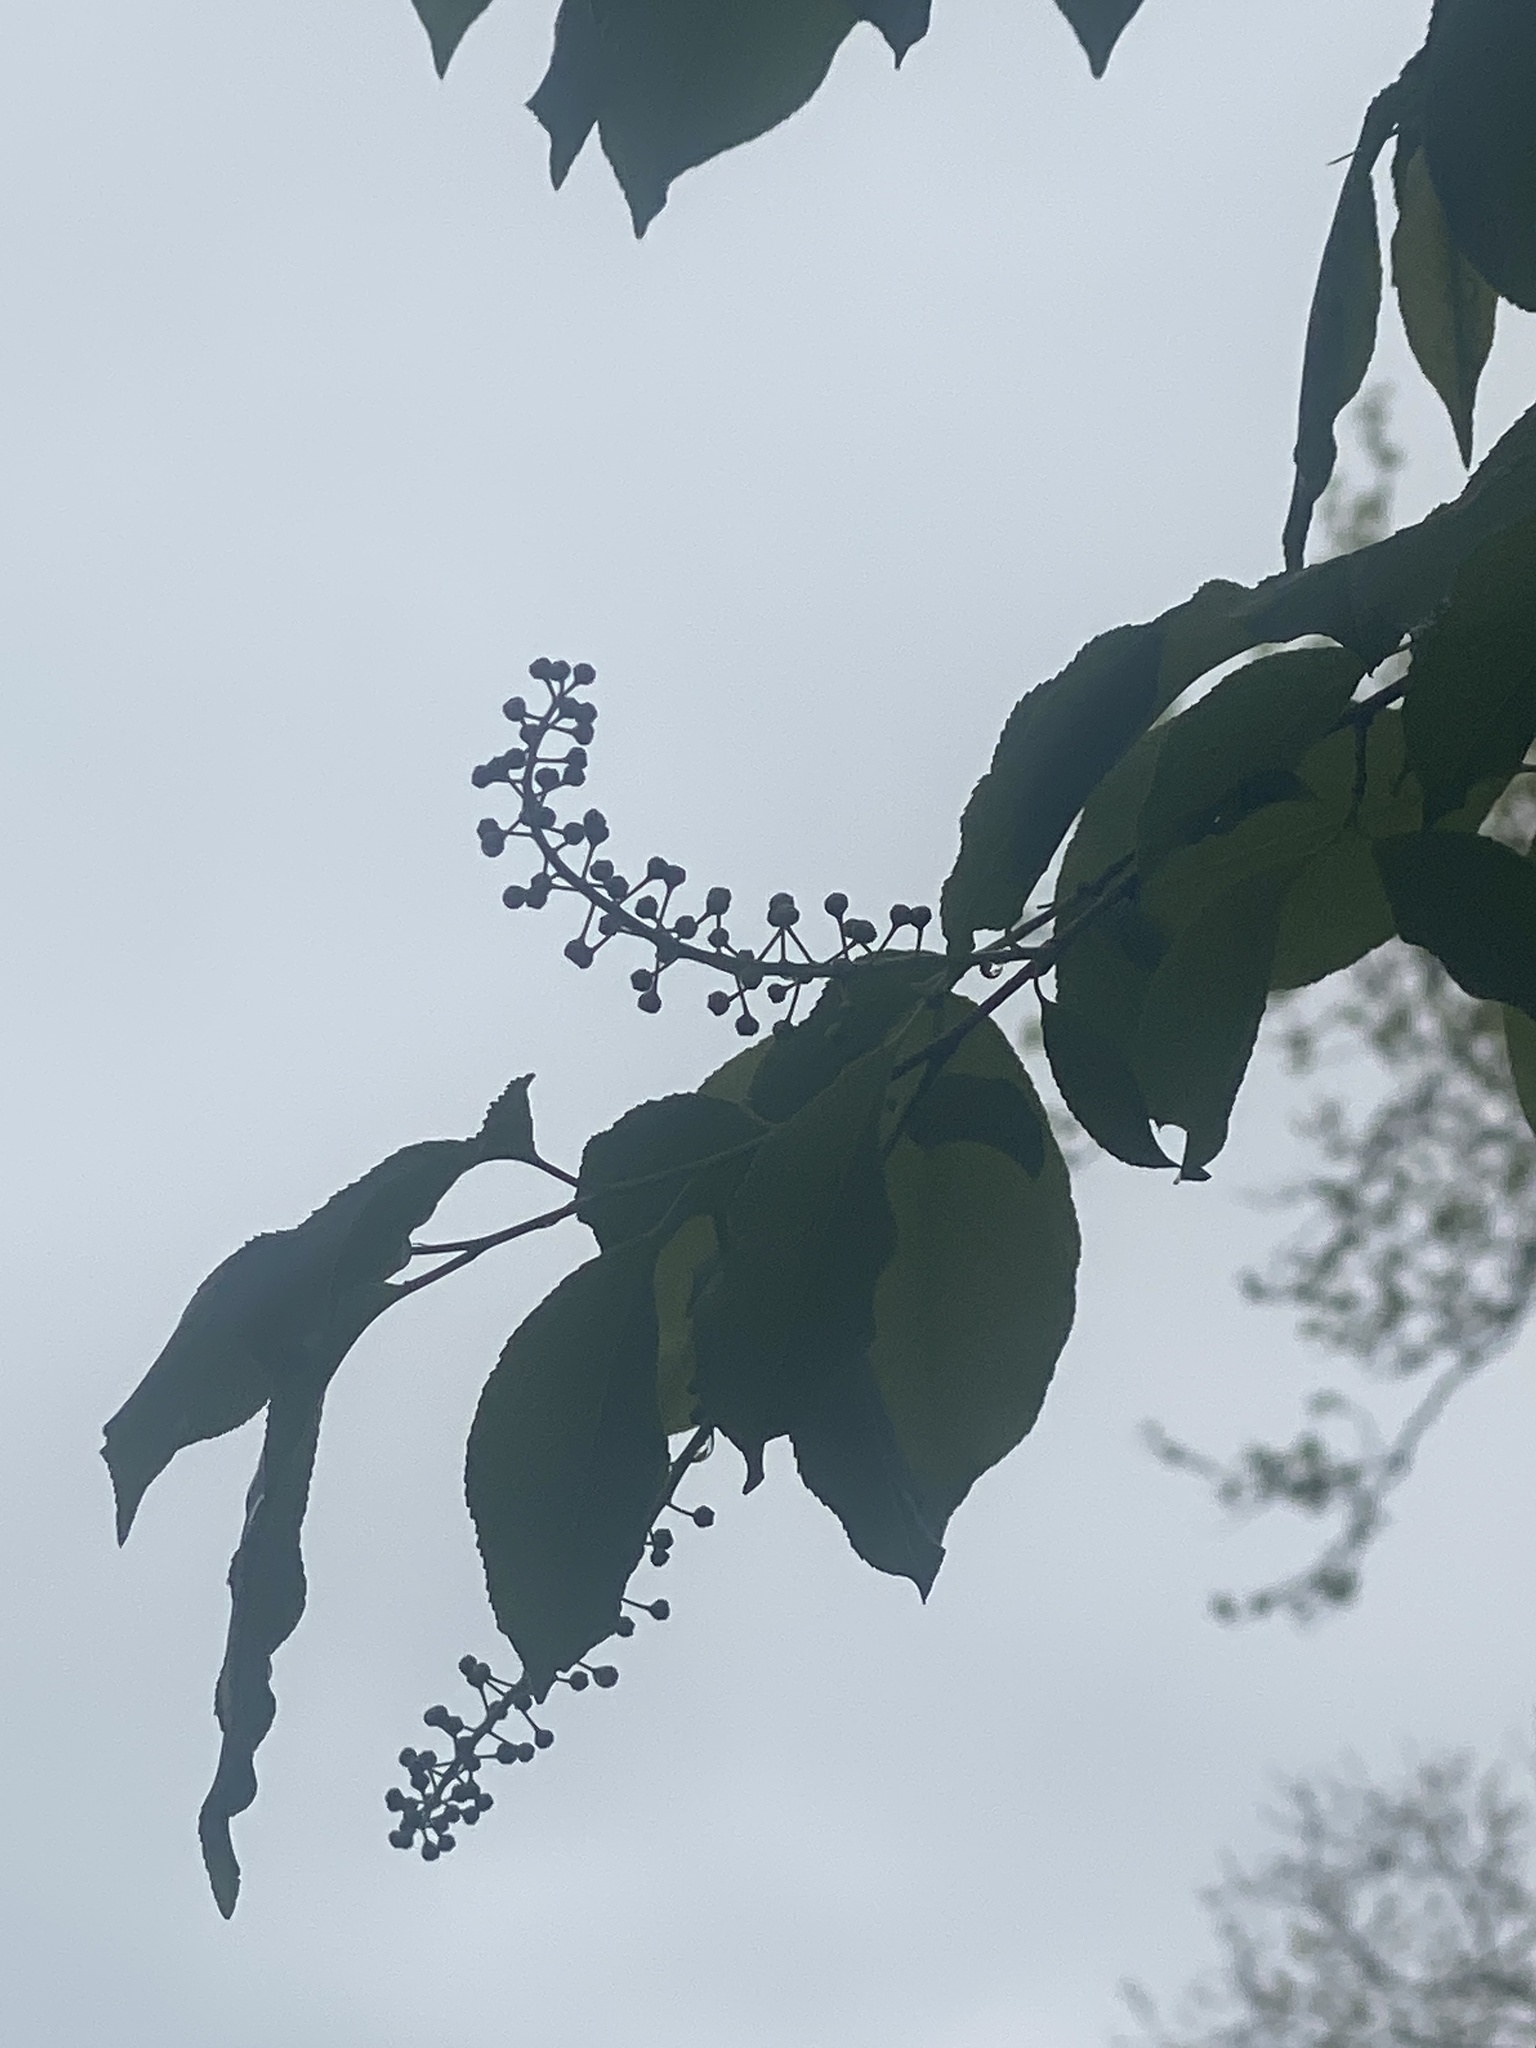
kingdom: Plantae
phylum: Tracheophyta
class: Magnoliopsida
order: Rosales
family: Rosaceae
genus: Prunus
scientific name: Prunus serotina
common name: Black cherry
